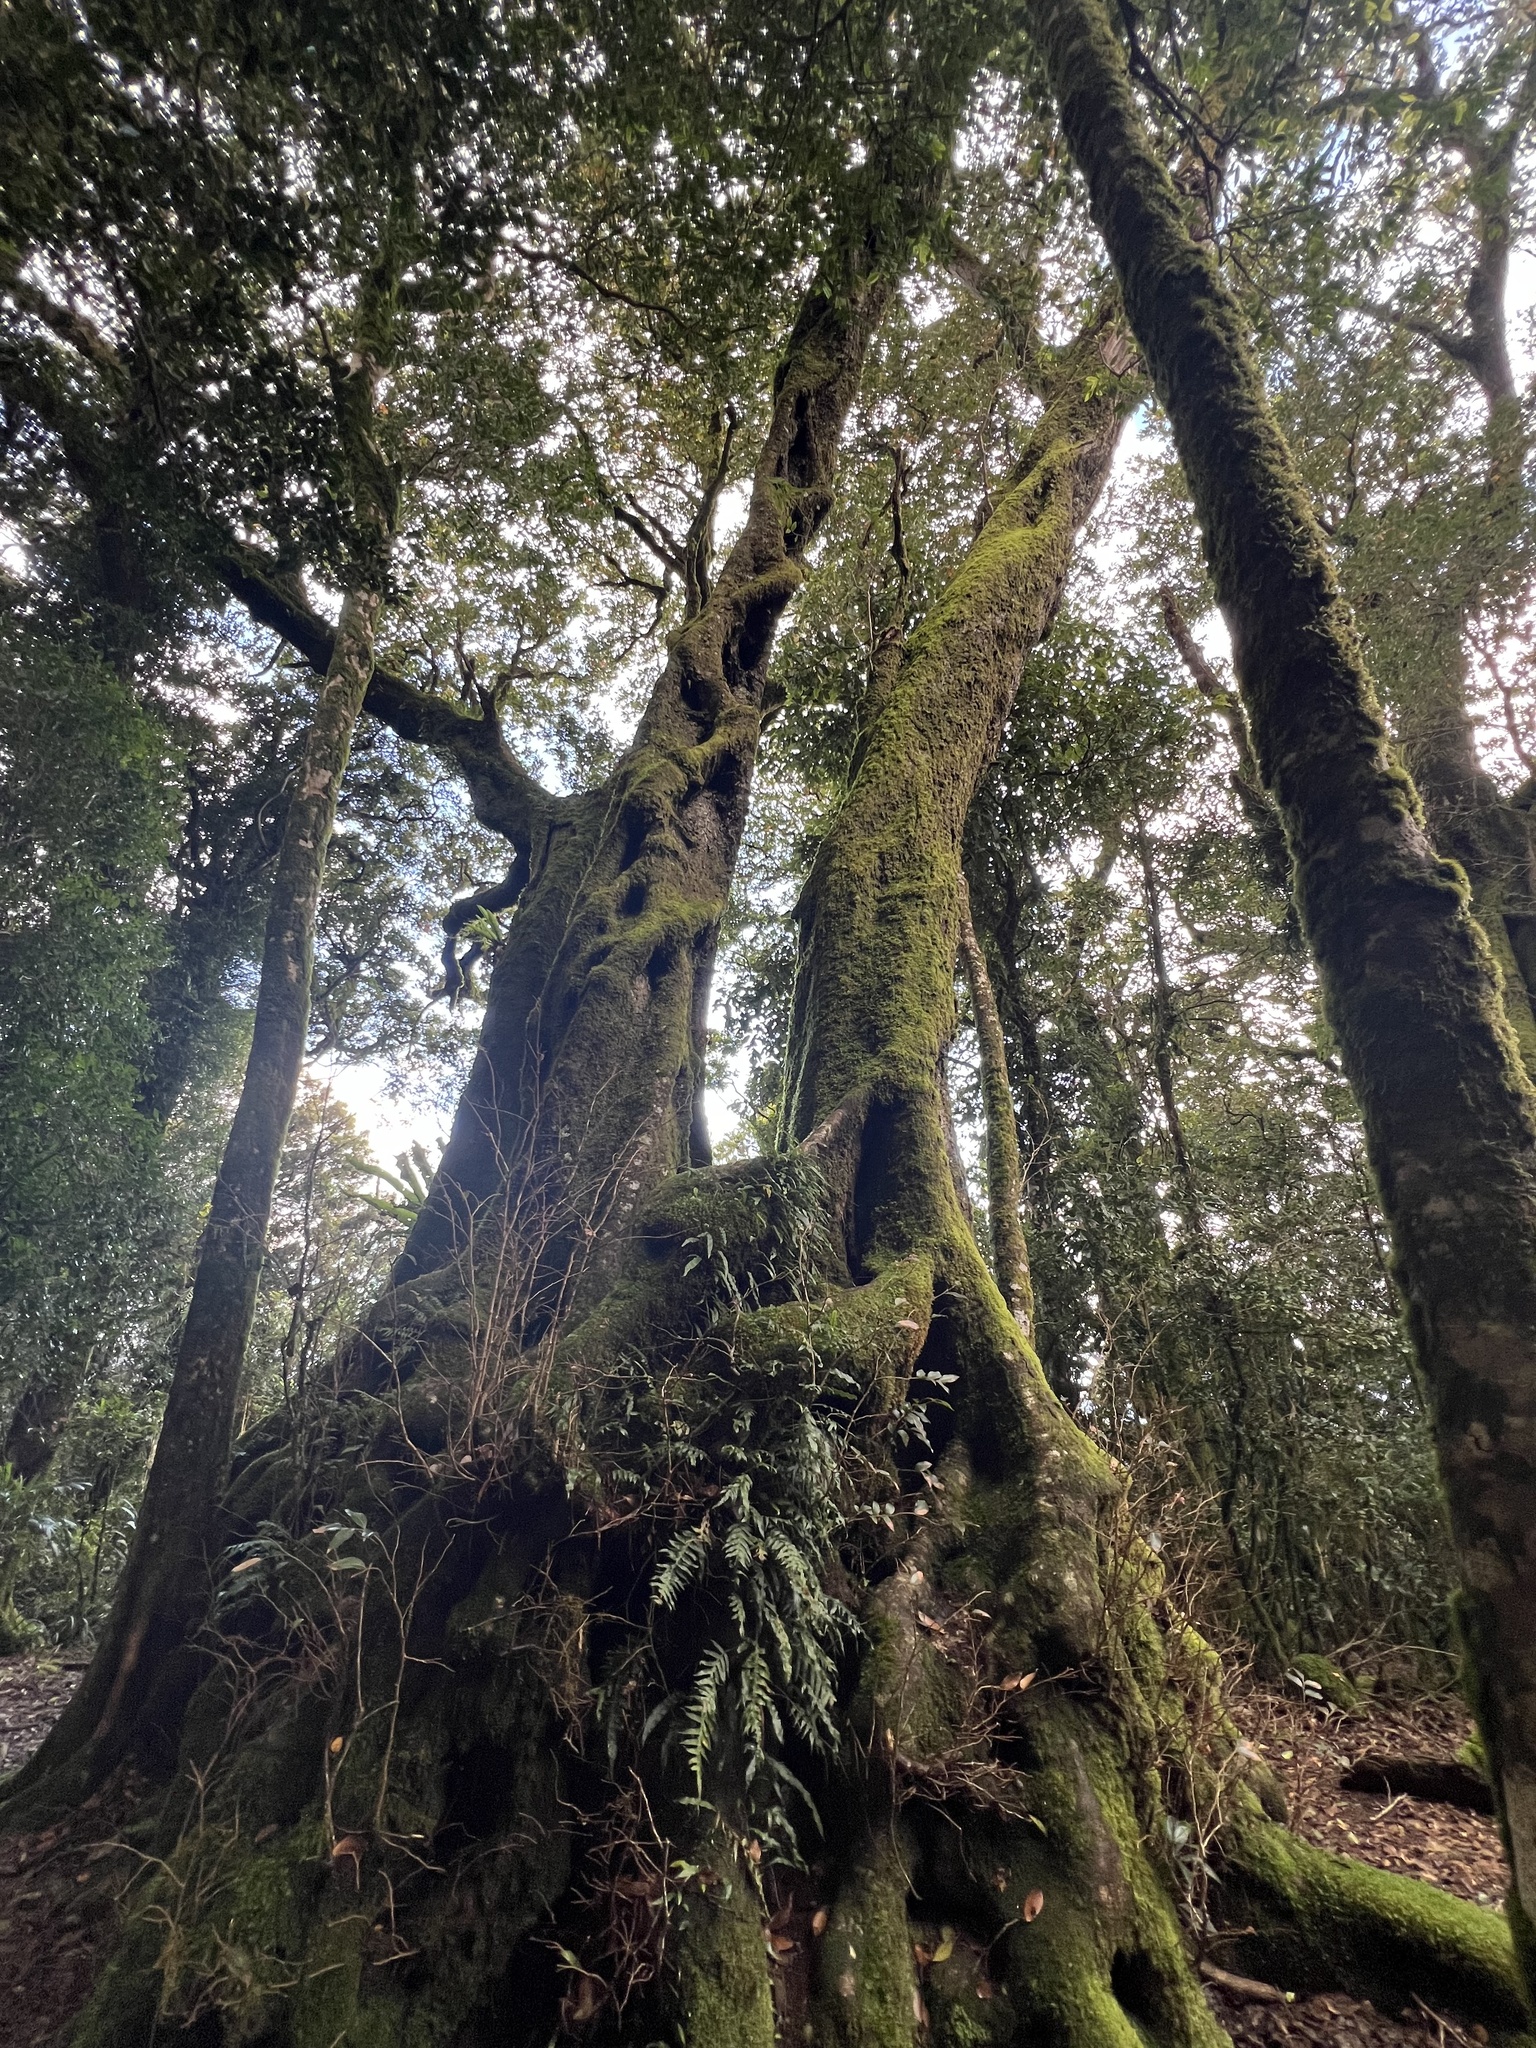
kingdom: Plantae
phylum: Tracheophyta
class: Magnoliopsida
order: Fagales
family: Nothofagaceae
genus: Nothofagus
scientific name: Nothofagus moorei
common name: Antarctic beech
